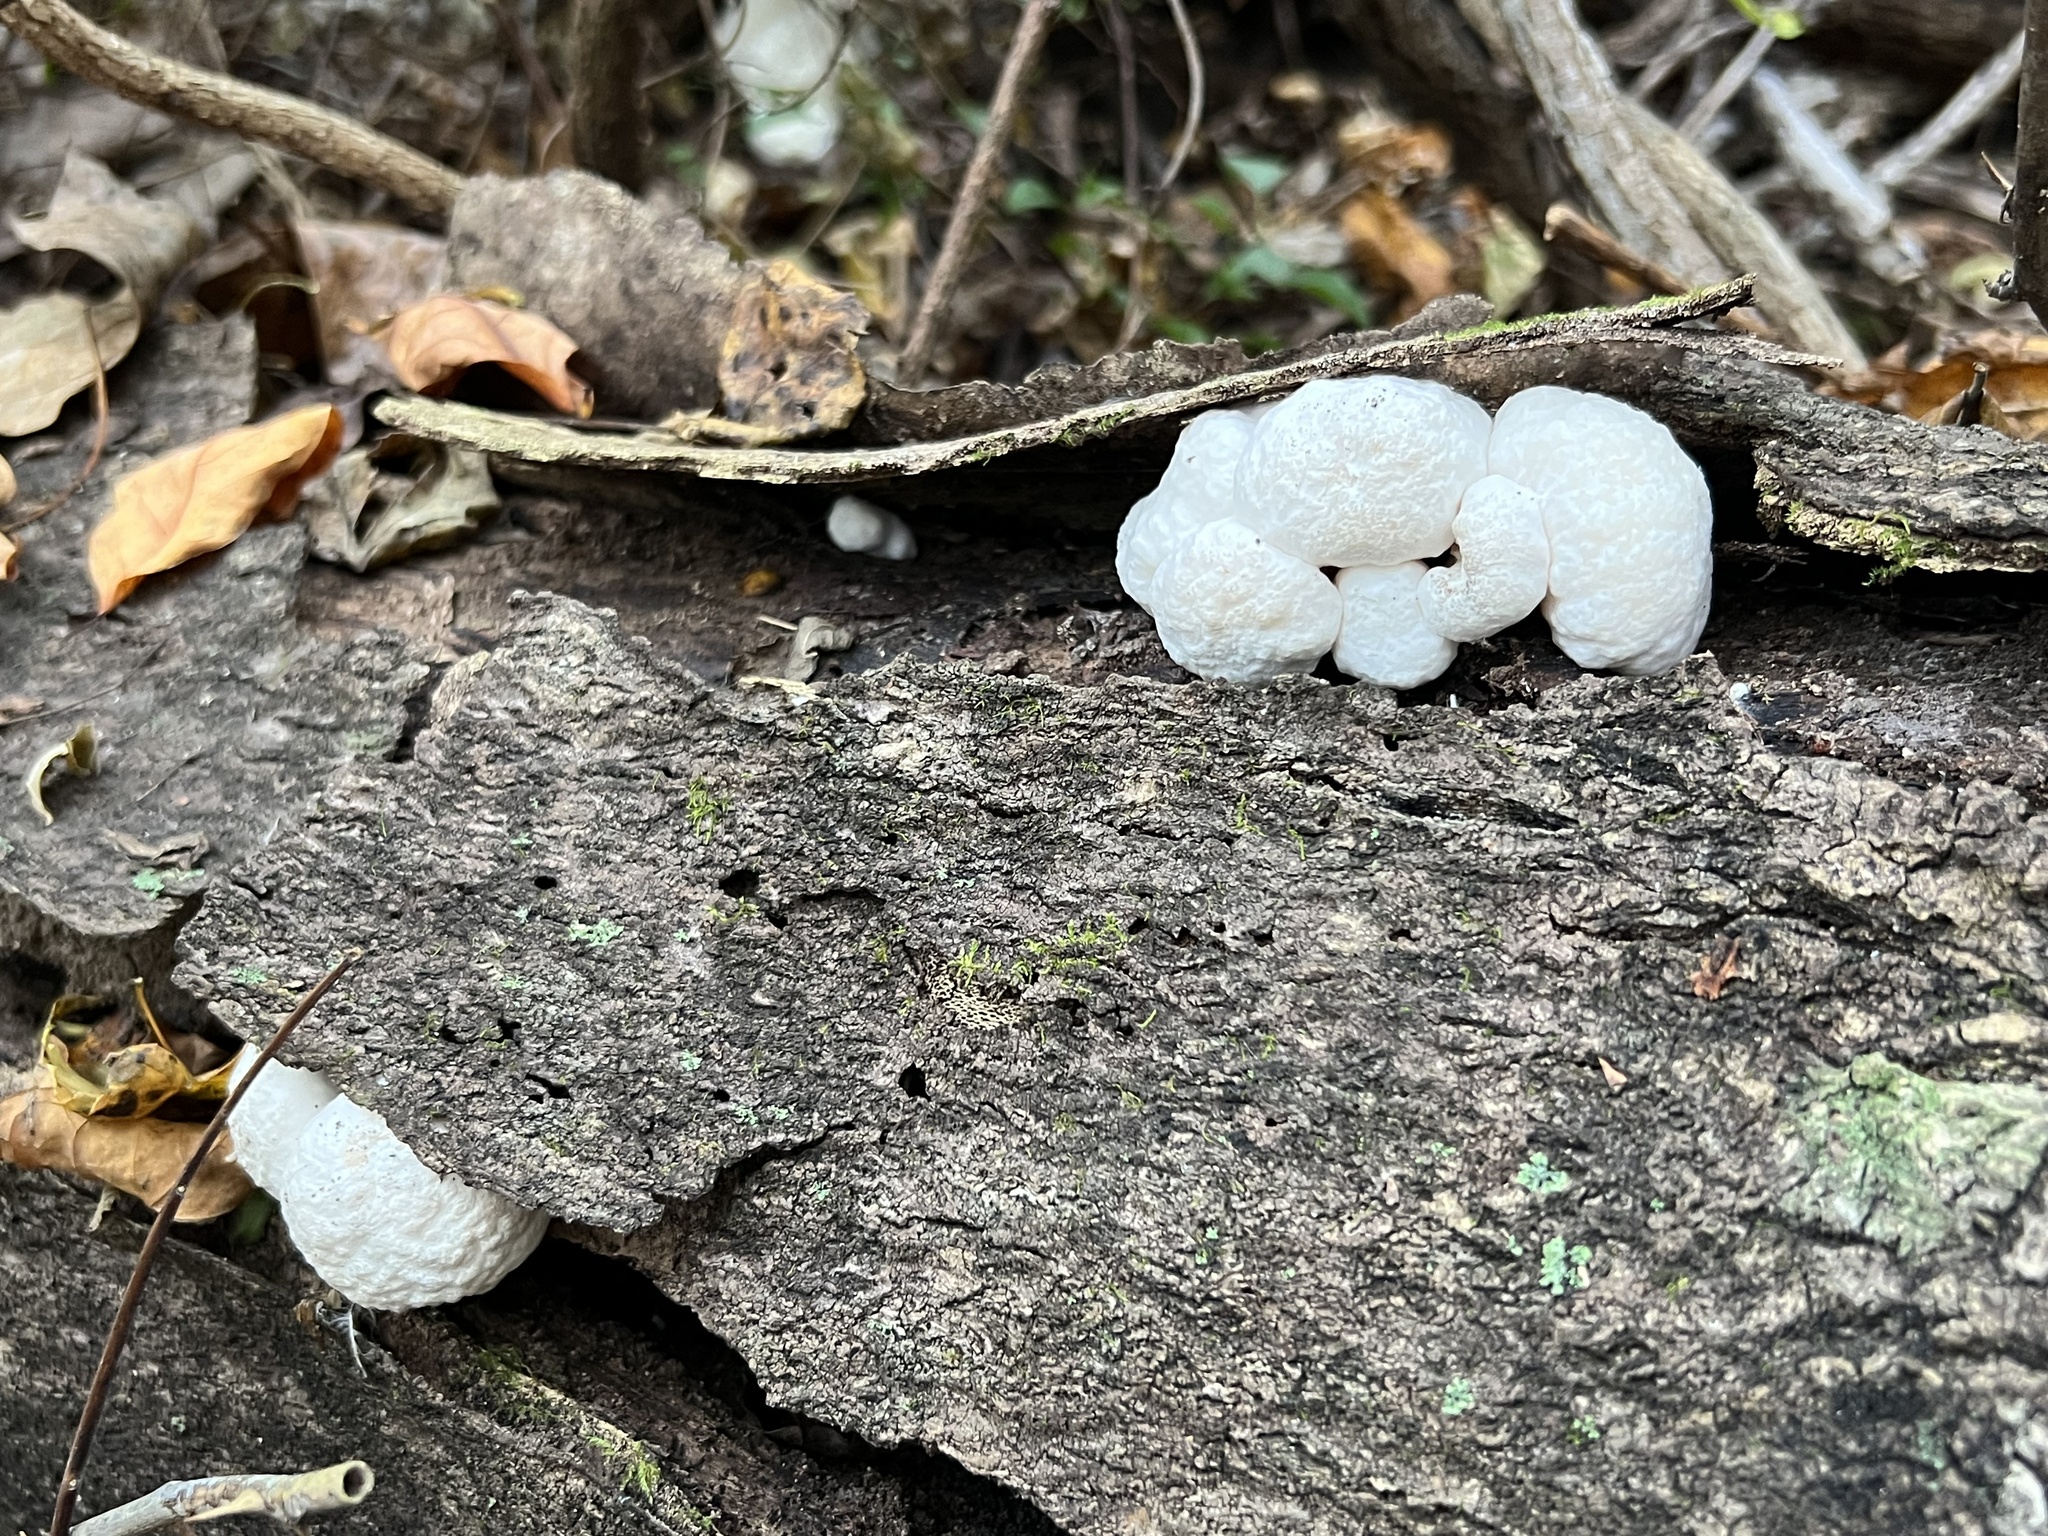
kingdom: Fungi
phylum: Basidiomycota
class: Agaricomycetes
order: Agaricales
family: Entolomataceae
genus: Entoloma
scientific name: Entoloma abortivum
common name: Aborted entoloma
